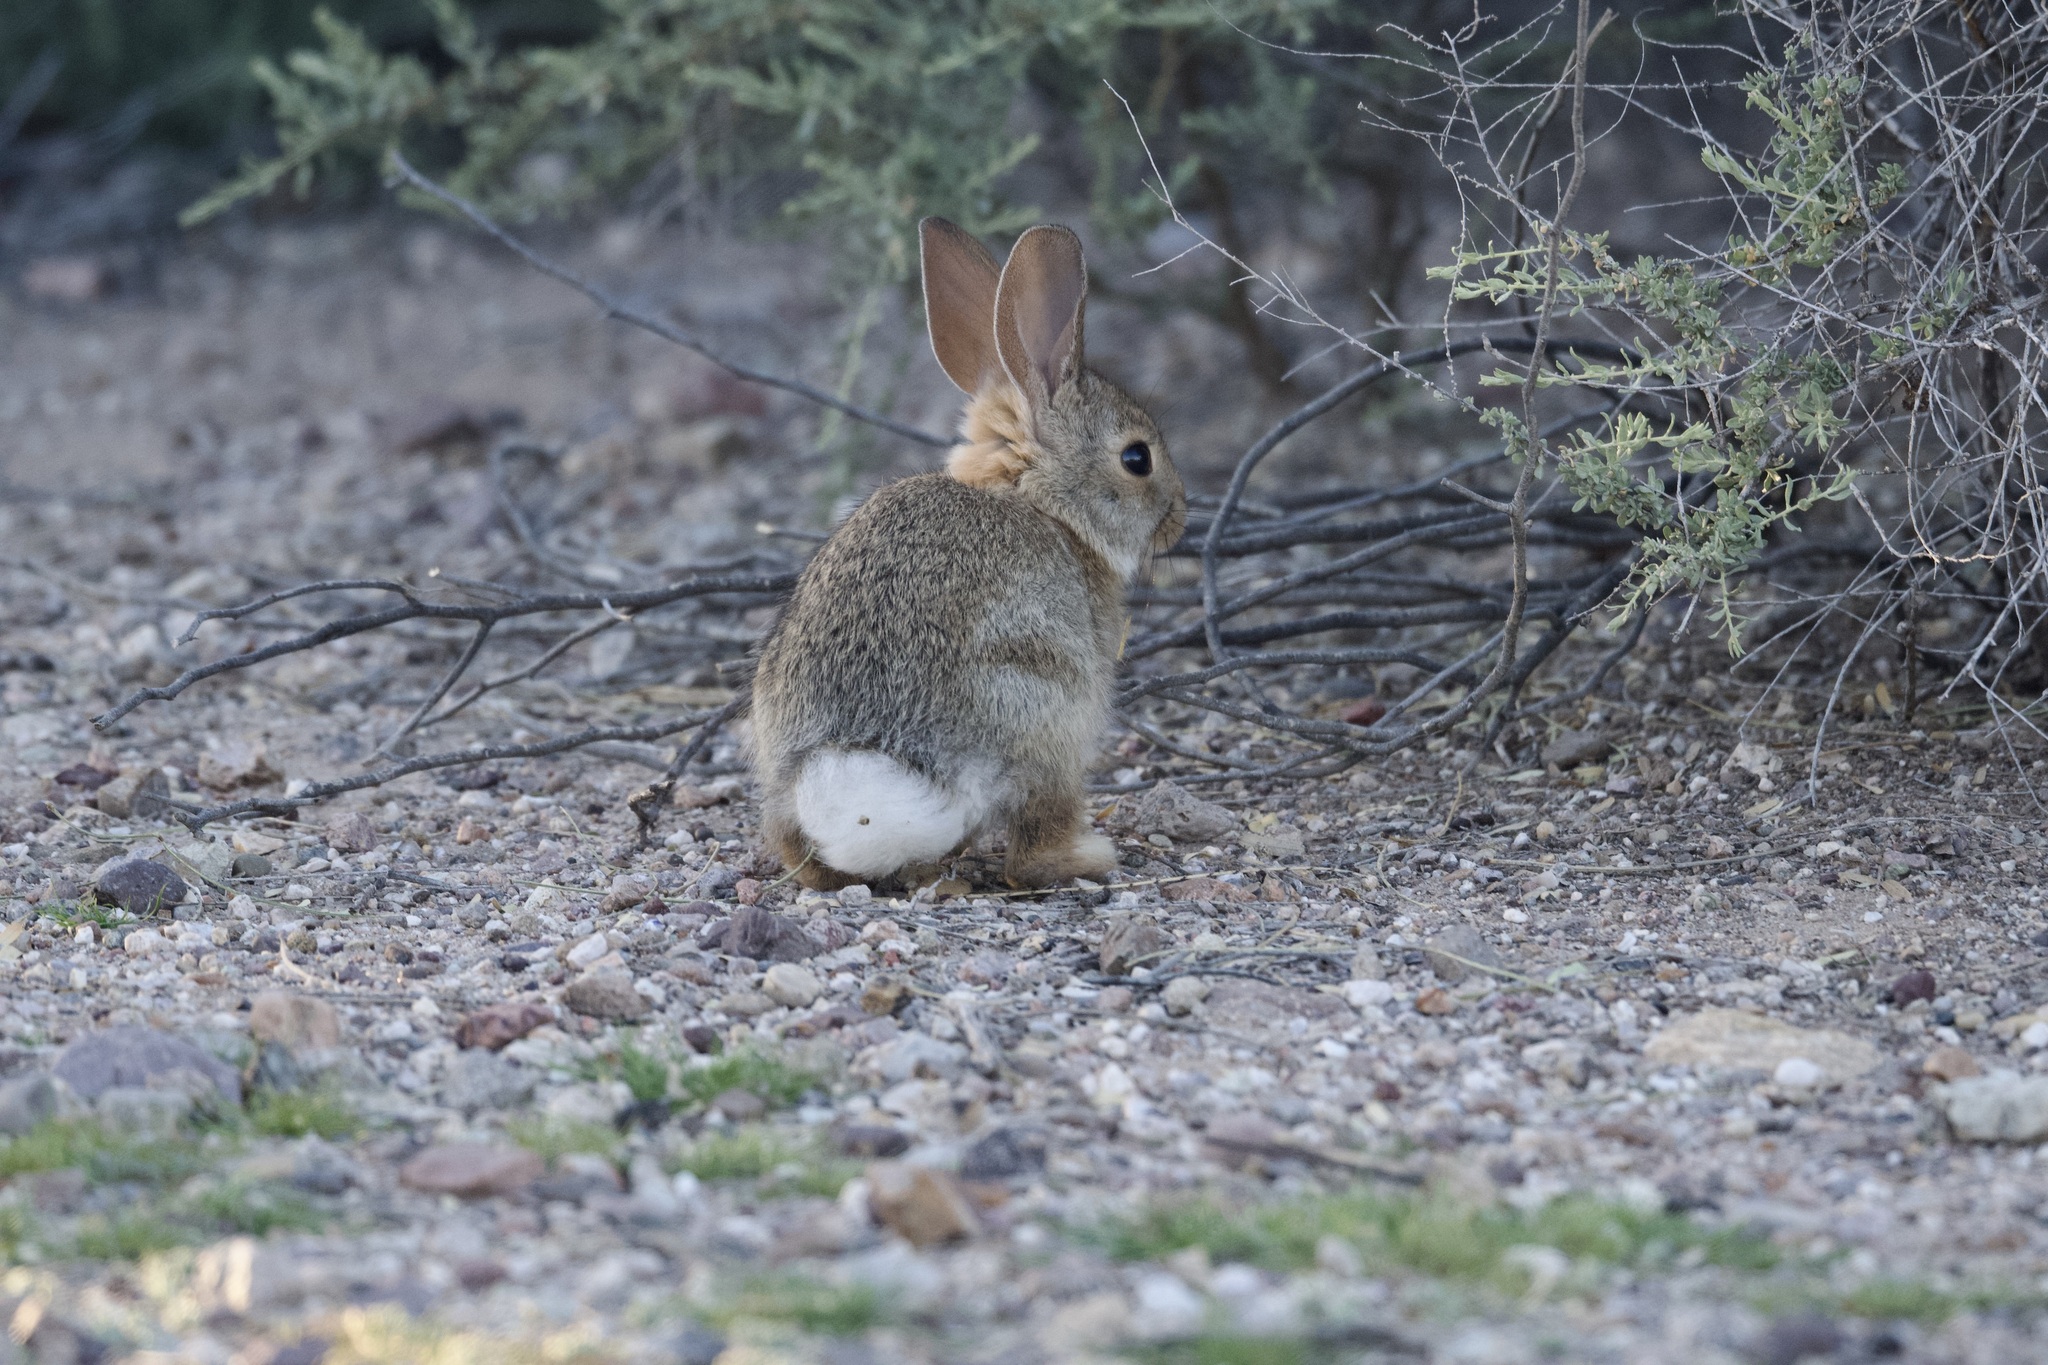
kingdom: Animalia
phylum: Chordata
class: Mammalia
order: Lagomorpha
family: Leporidae
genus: Sylvilagus
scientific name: Sylvilagus audubonii
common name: Desert cottontail
